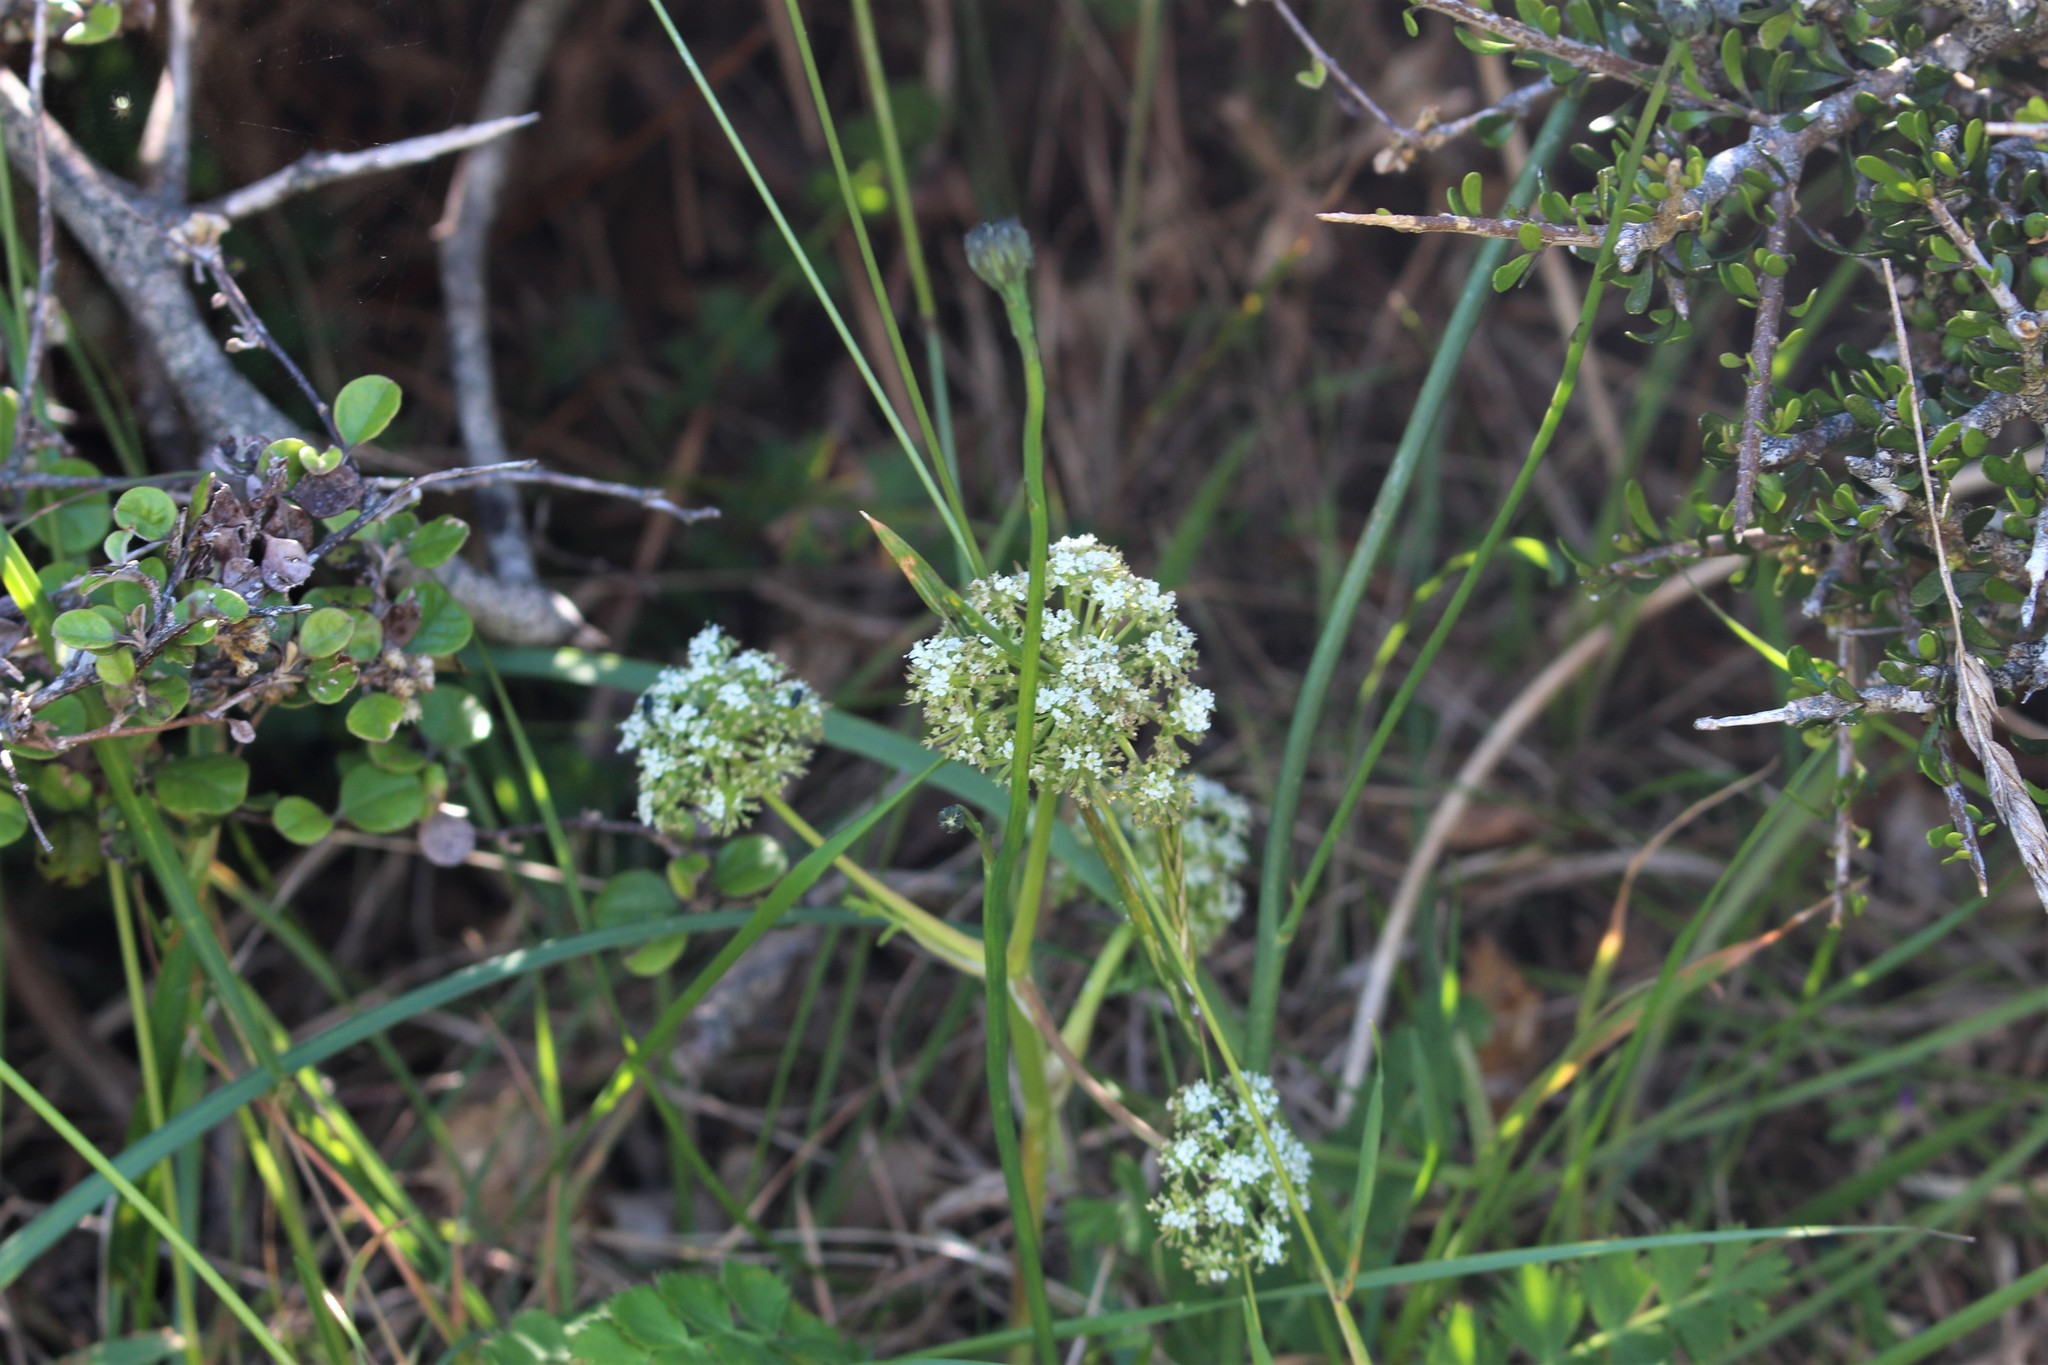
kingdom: Plantae
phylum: Tracheophyta
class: Magnoliopsida
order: Apiales
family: Apiaceae
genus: Anisotome
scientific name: Anisotome aromatica
